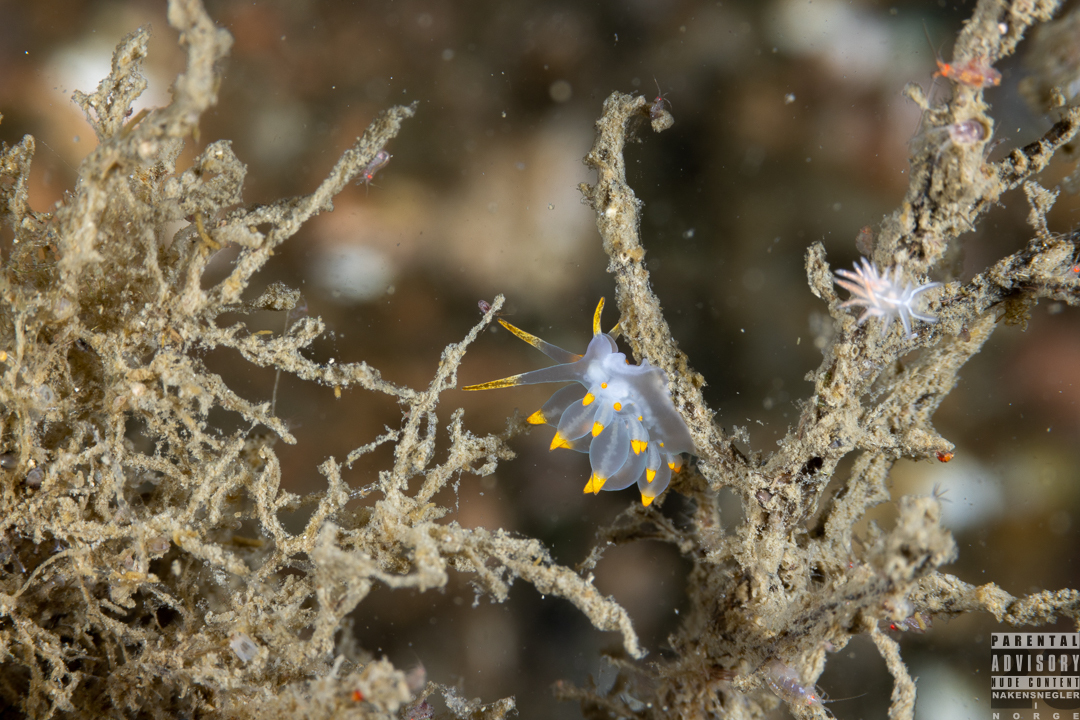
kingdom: Animalia
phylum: Mollusca
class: Gastropoda
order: Nudibranchia
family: Eubranchidae
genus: Amphorina
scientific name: Amphorina farrani
